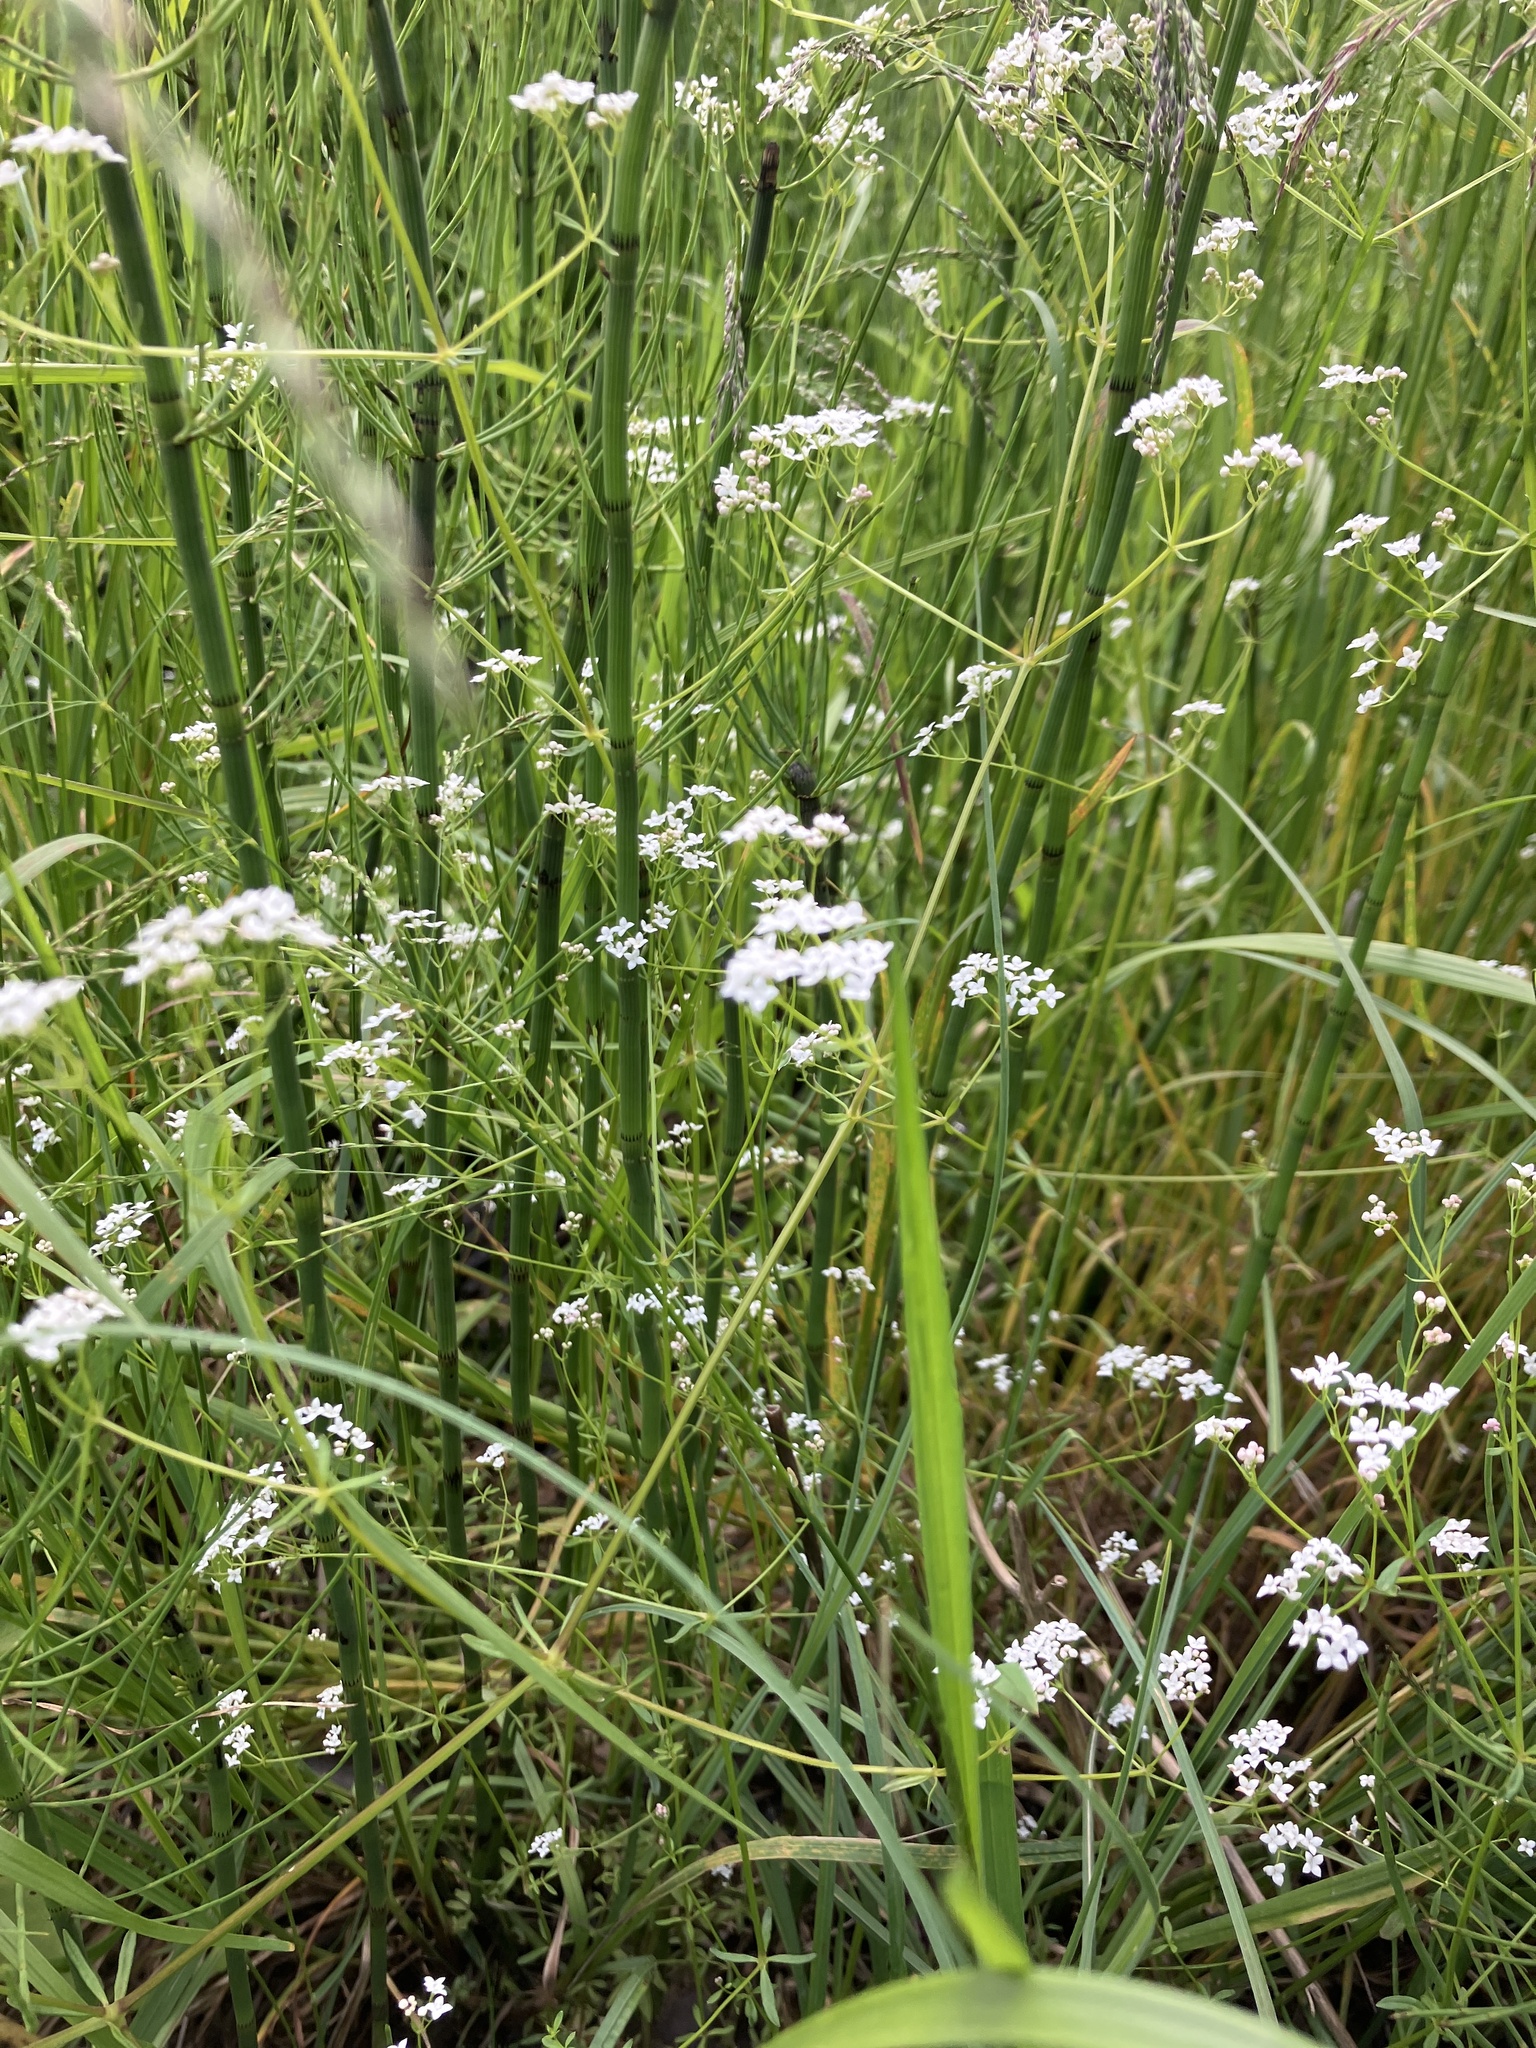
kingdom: Plantae
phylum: Tracheophyta
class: Magnoliopsida
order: Gentianales
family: Rubiaceae
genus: Galium
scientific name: Galium palustre
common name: Common marsh-bedstraw
